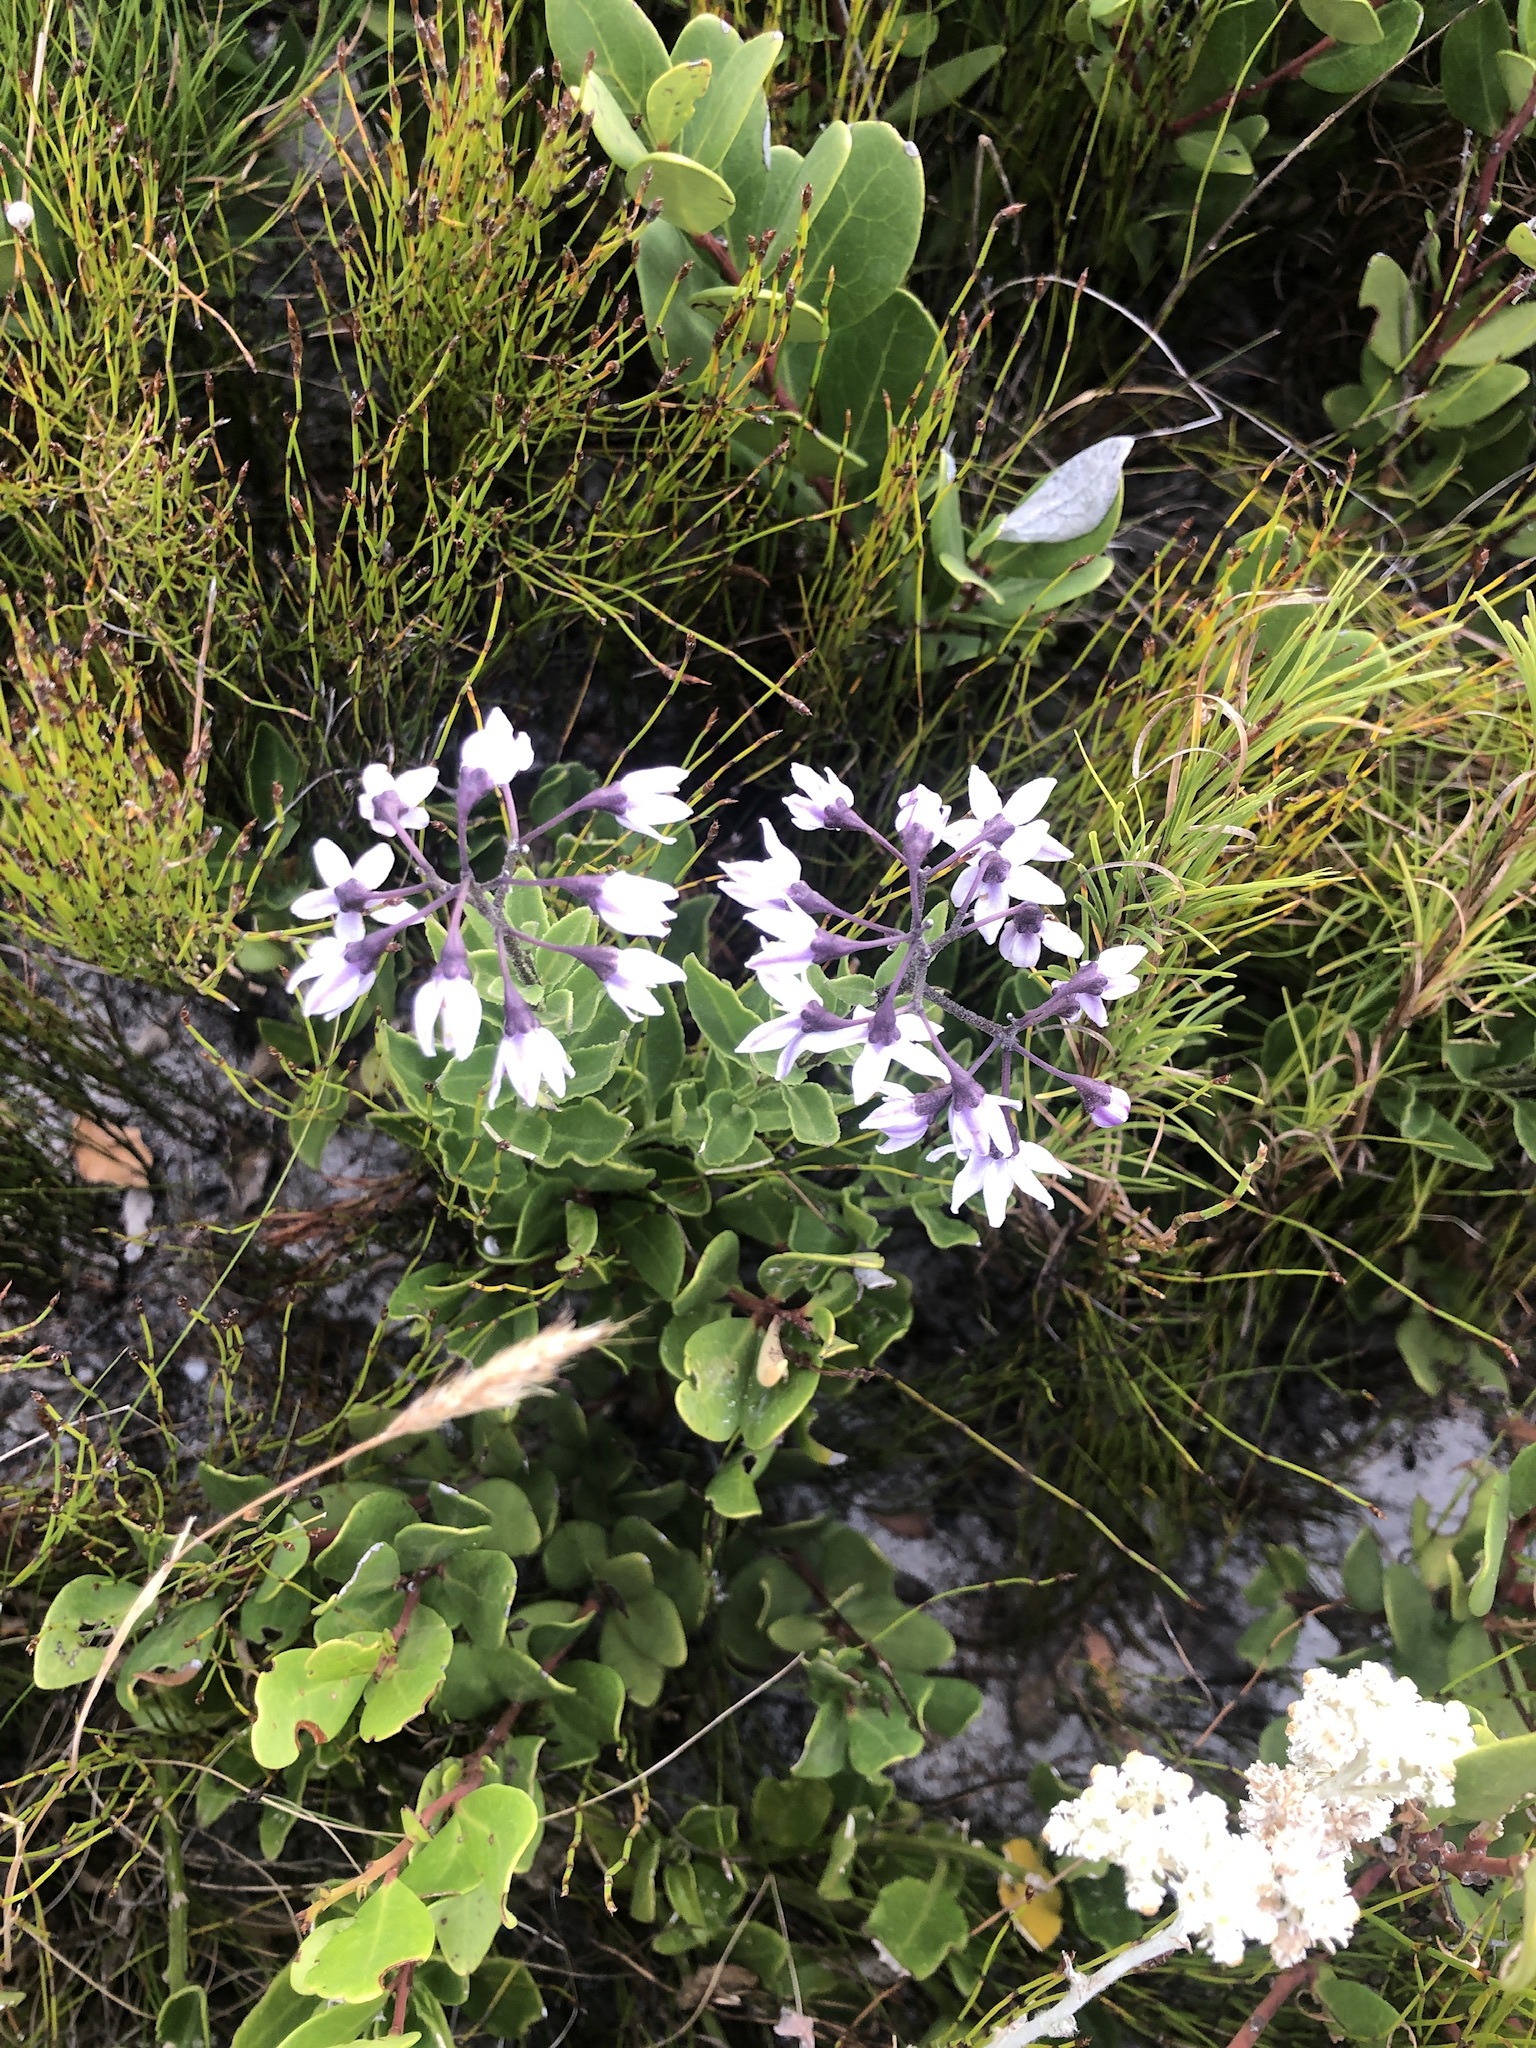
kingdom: Plantae
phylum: Tracheophyta
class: Magnoliopsida
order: Solanales
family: Solanaceae
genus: Solanum
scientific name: Solanum africanum
